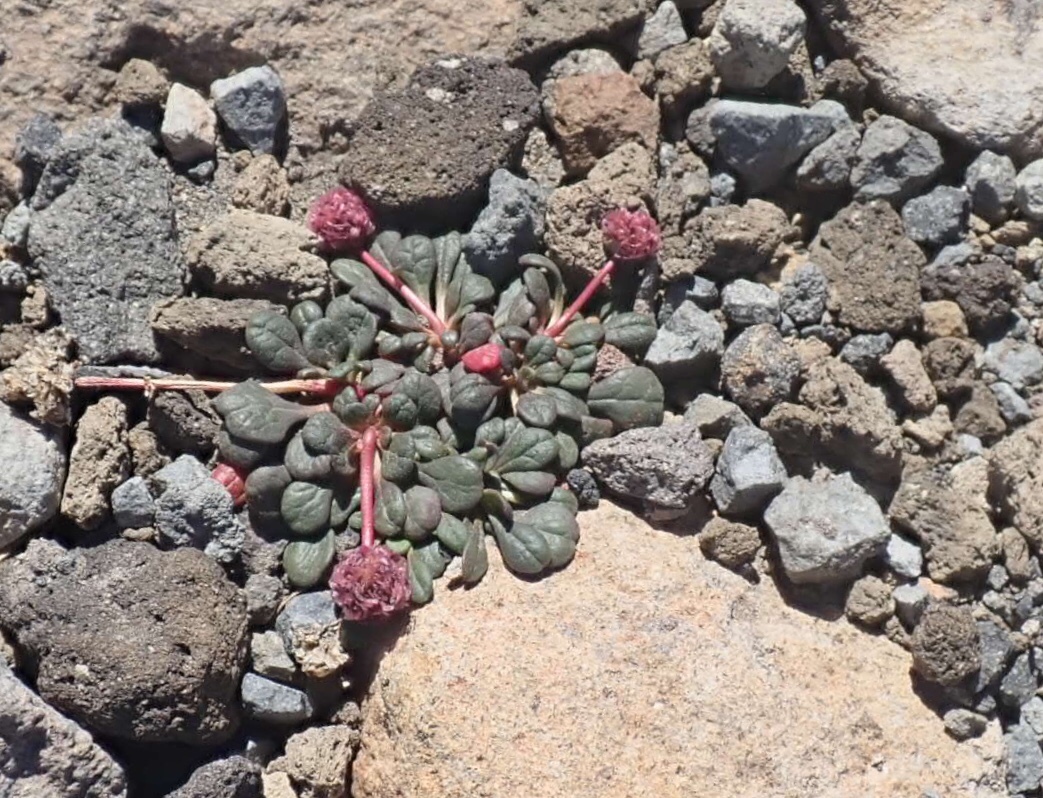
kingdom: Plantae
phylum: Tracheophyta
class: Magnoliopsida
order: Caryophyllales
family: Montiaceae
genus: Calyptridium
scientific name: Calyptridium umbellatum
